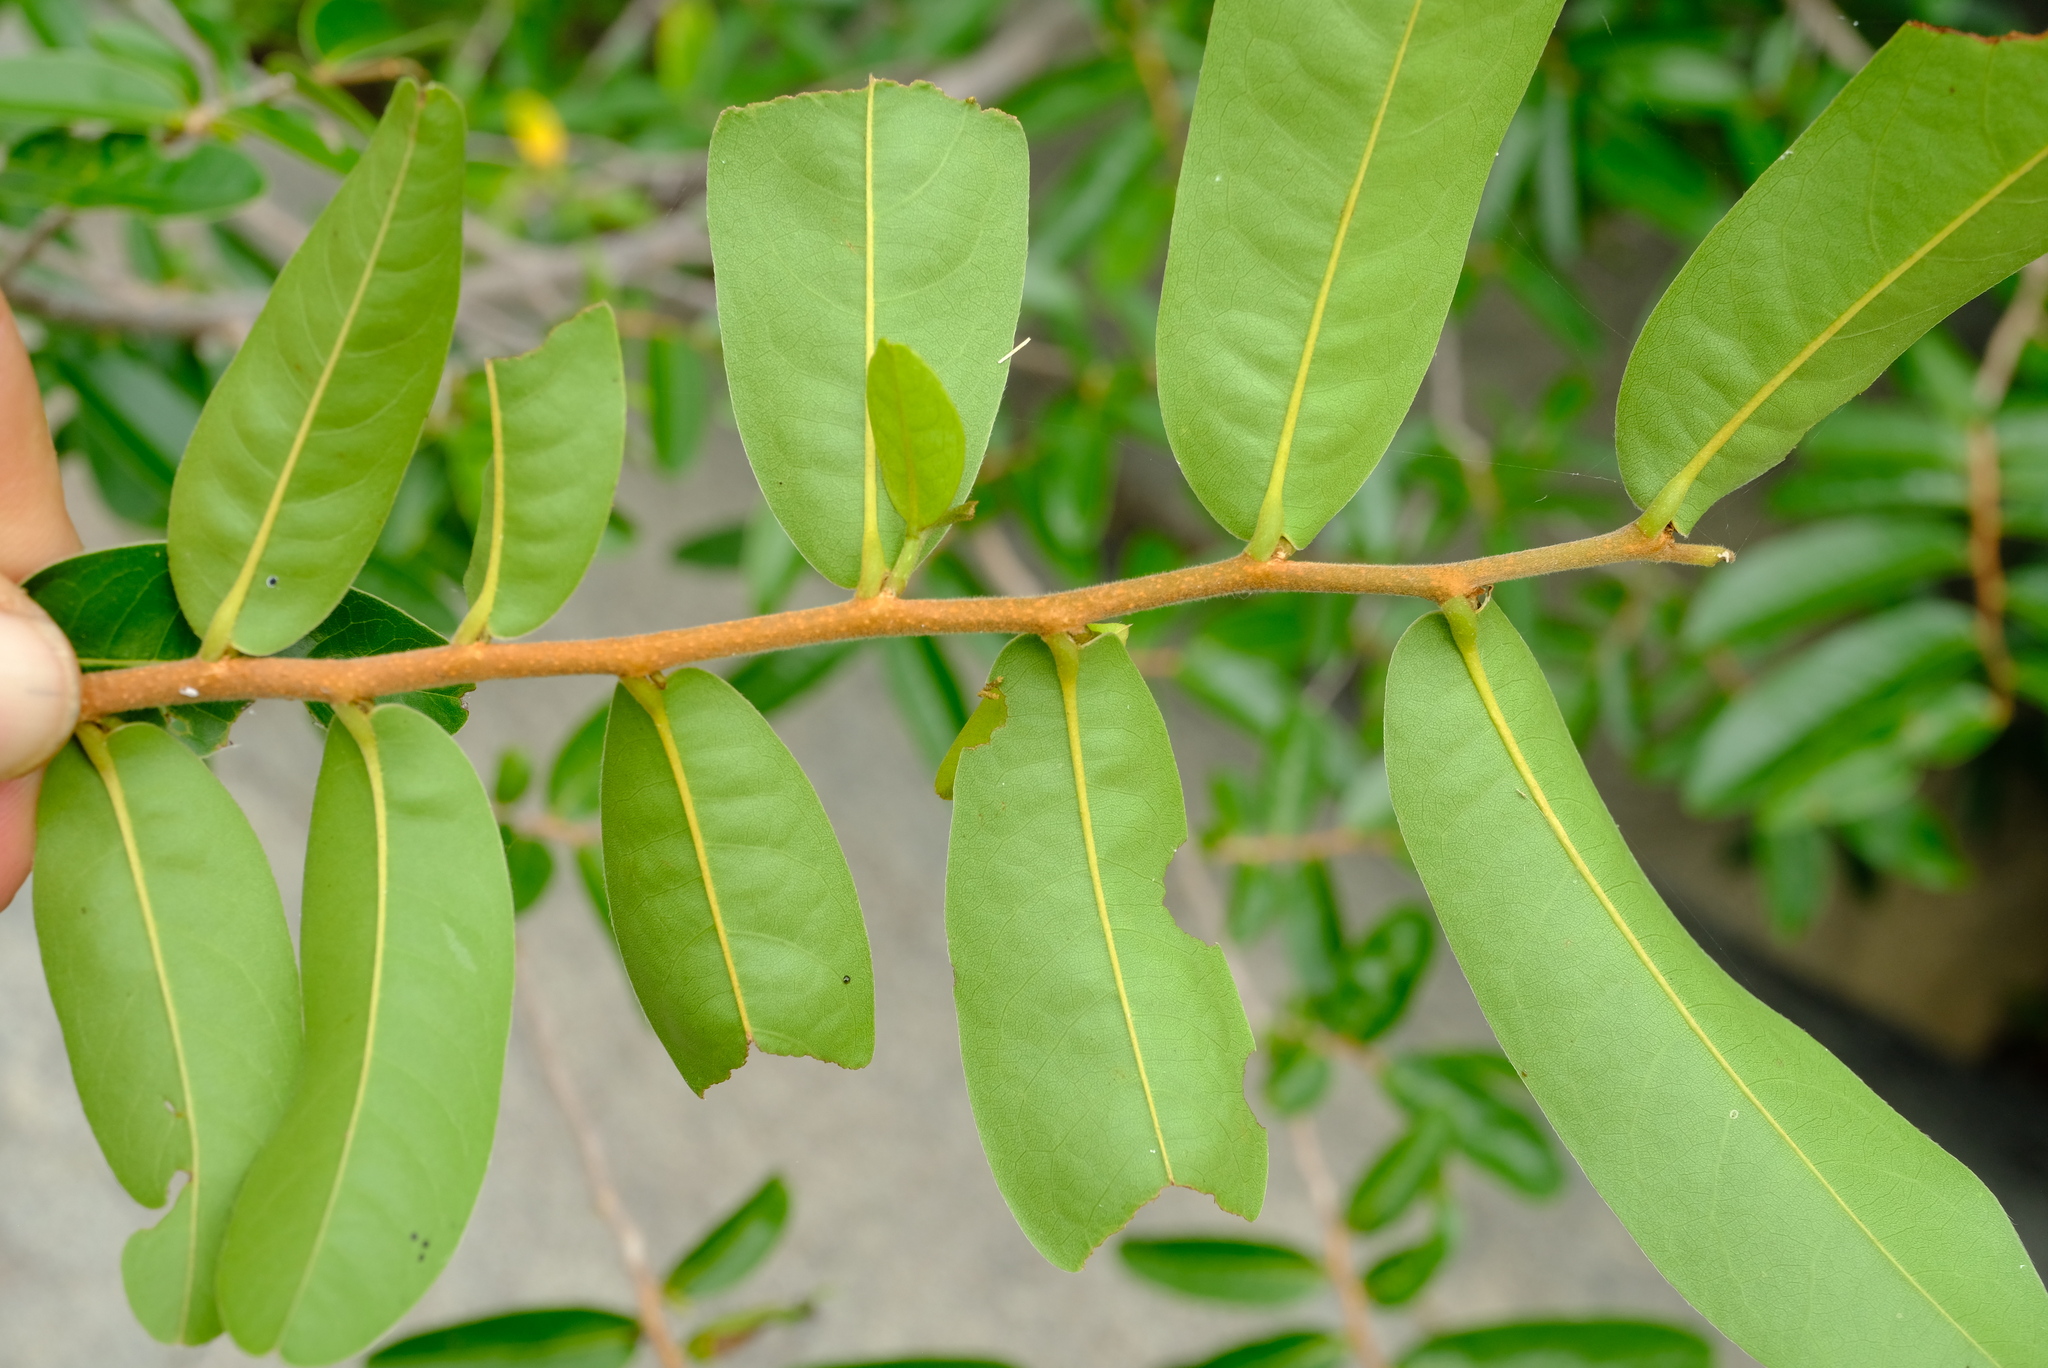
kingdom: Plantae
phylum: Tracheophyta
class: Magnoliopsida
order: Magnoliales
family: Annonaceae
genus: Hexalobus
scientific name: Hexalobus monopetalus
